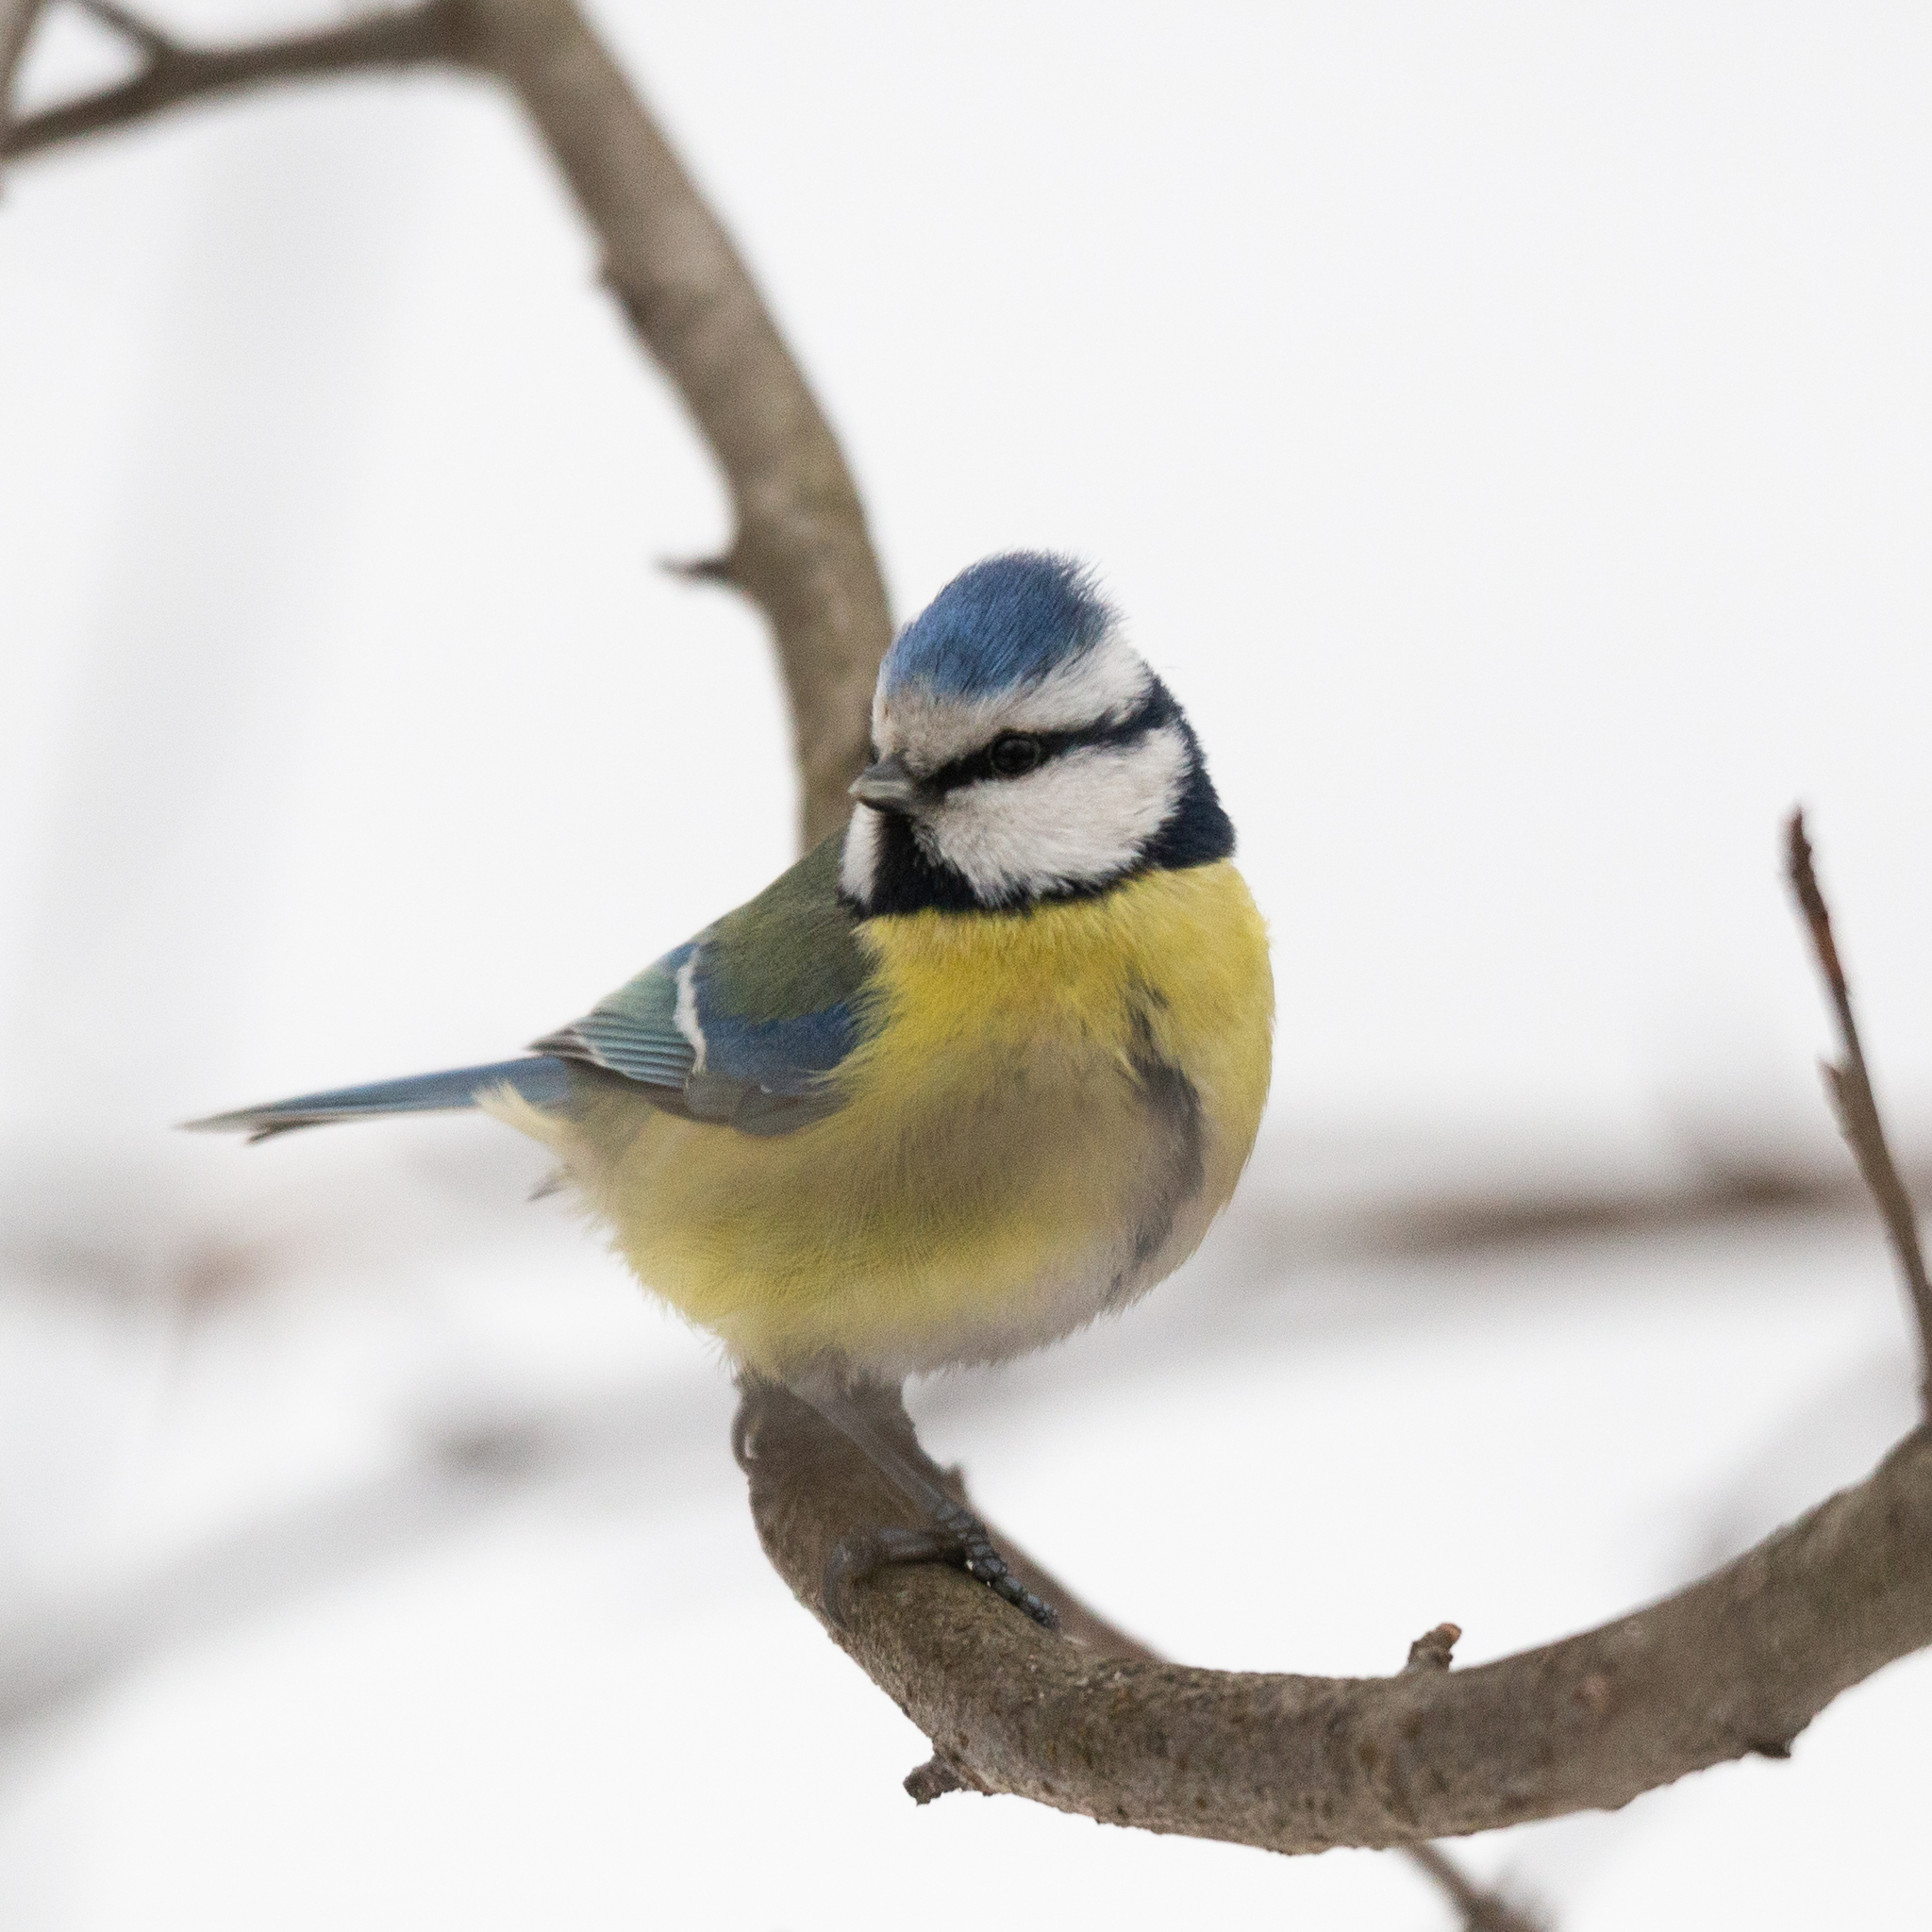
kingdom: Animalia
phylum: Chordata
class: Aves
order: Passeriformes
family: Paridae
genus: Cyanistes
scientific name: Cyanistes caeruleus
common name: Eurasian blue tit
